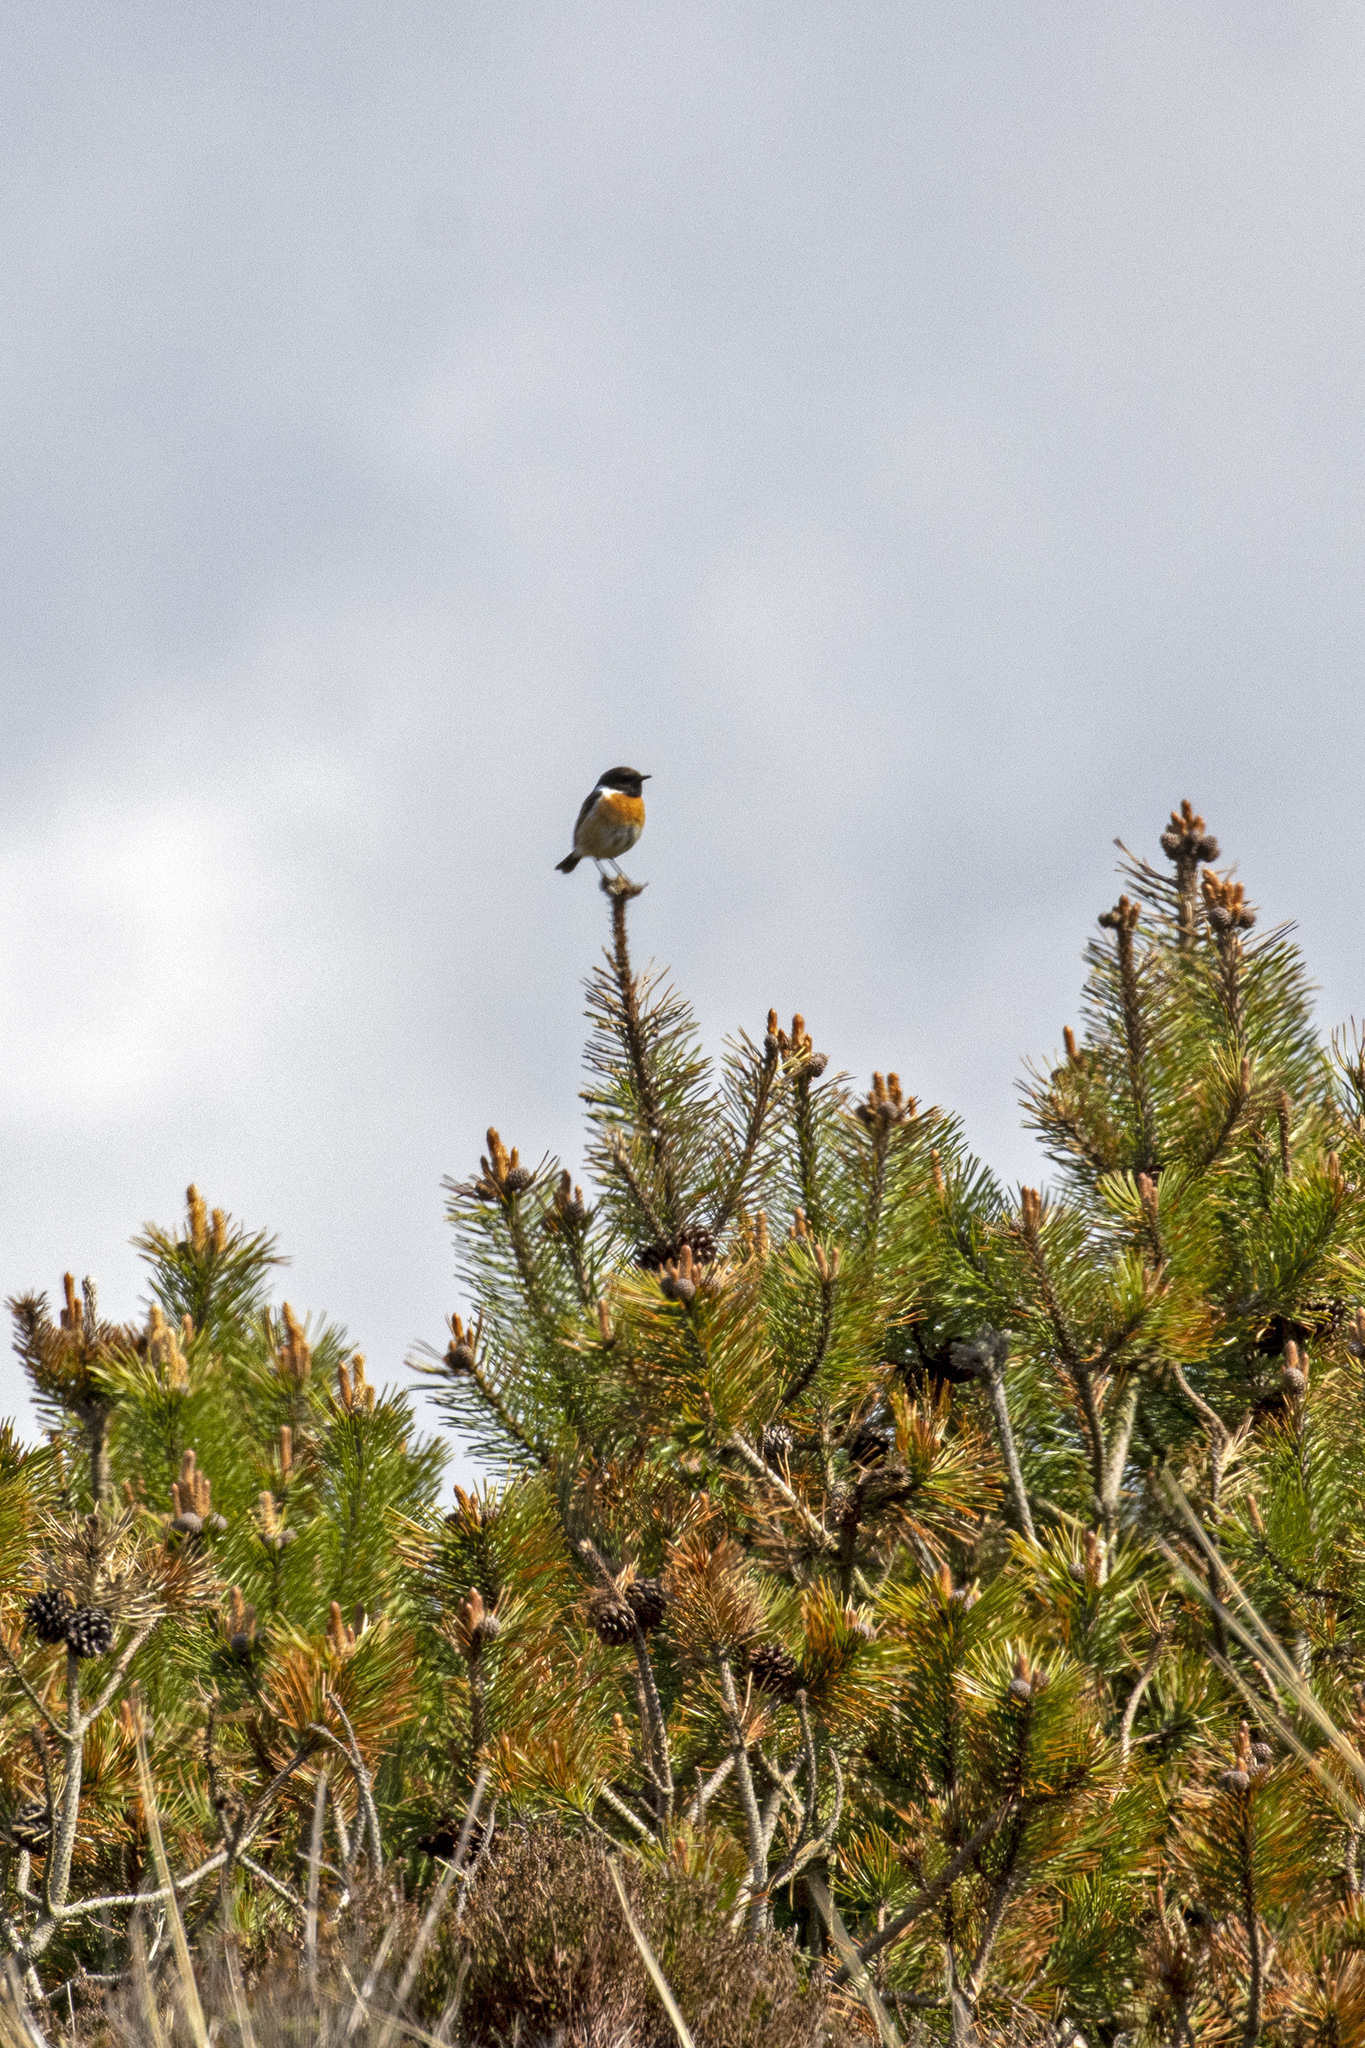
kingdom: Animalia
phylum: Chordata
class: Aves
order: Passeriformes
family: Muscicapidae
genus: Saxicola
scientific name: Saxicola rubicola
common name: European stonechat
